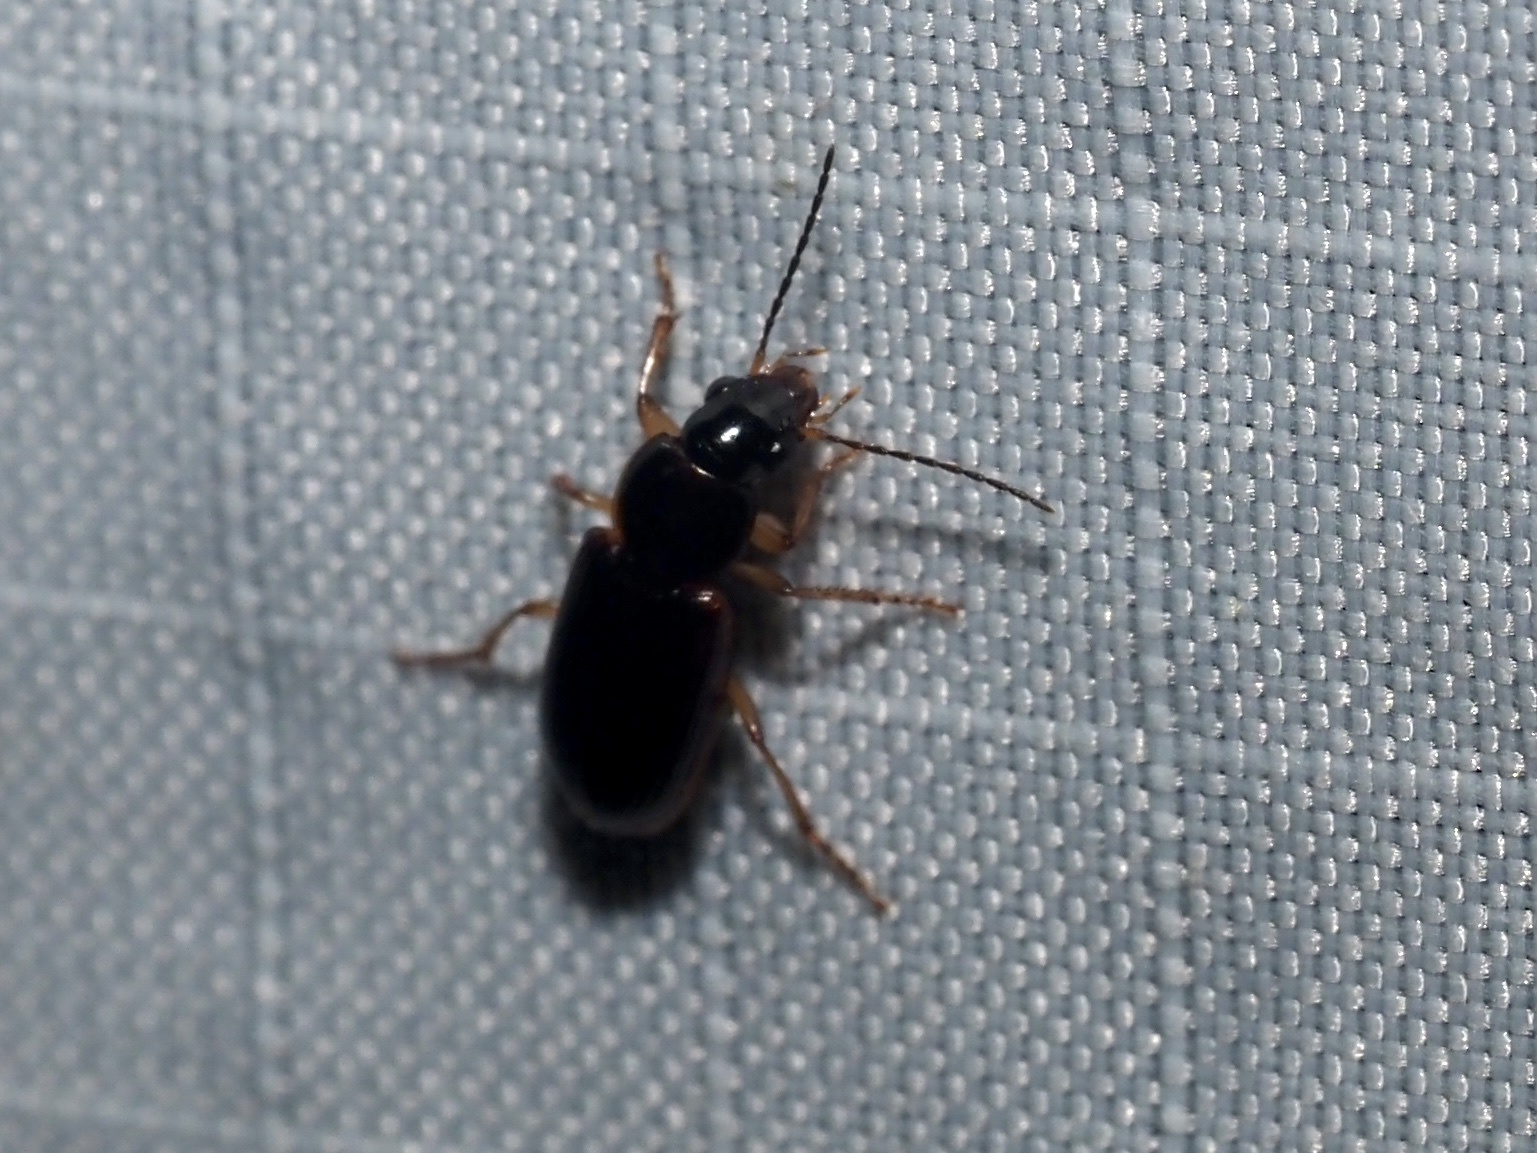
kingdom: Animalia
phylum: Arthropoda
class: Insecta
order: Coleoptera
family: Carabidae
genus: Stenolophus
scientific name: Stenolophus ochropezus
